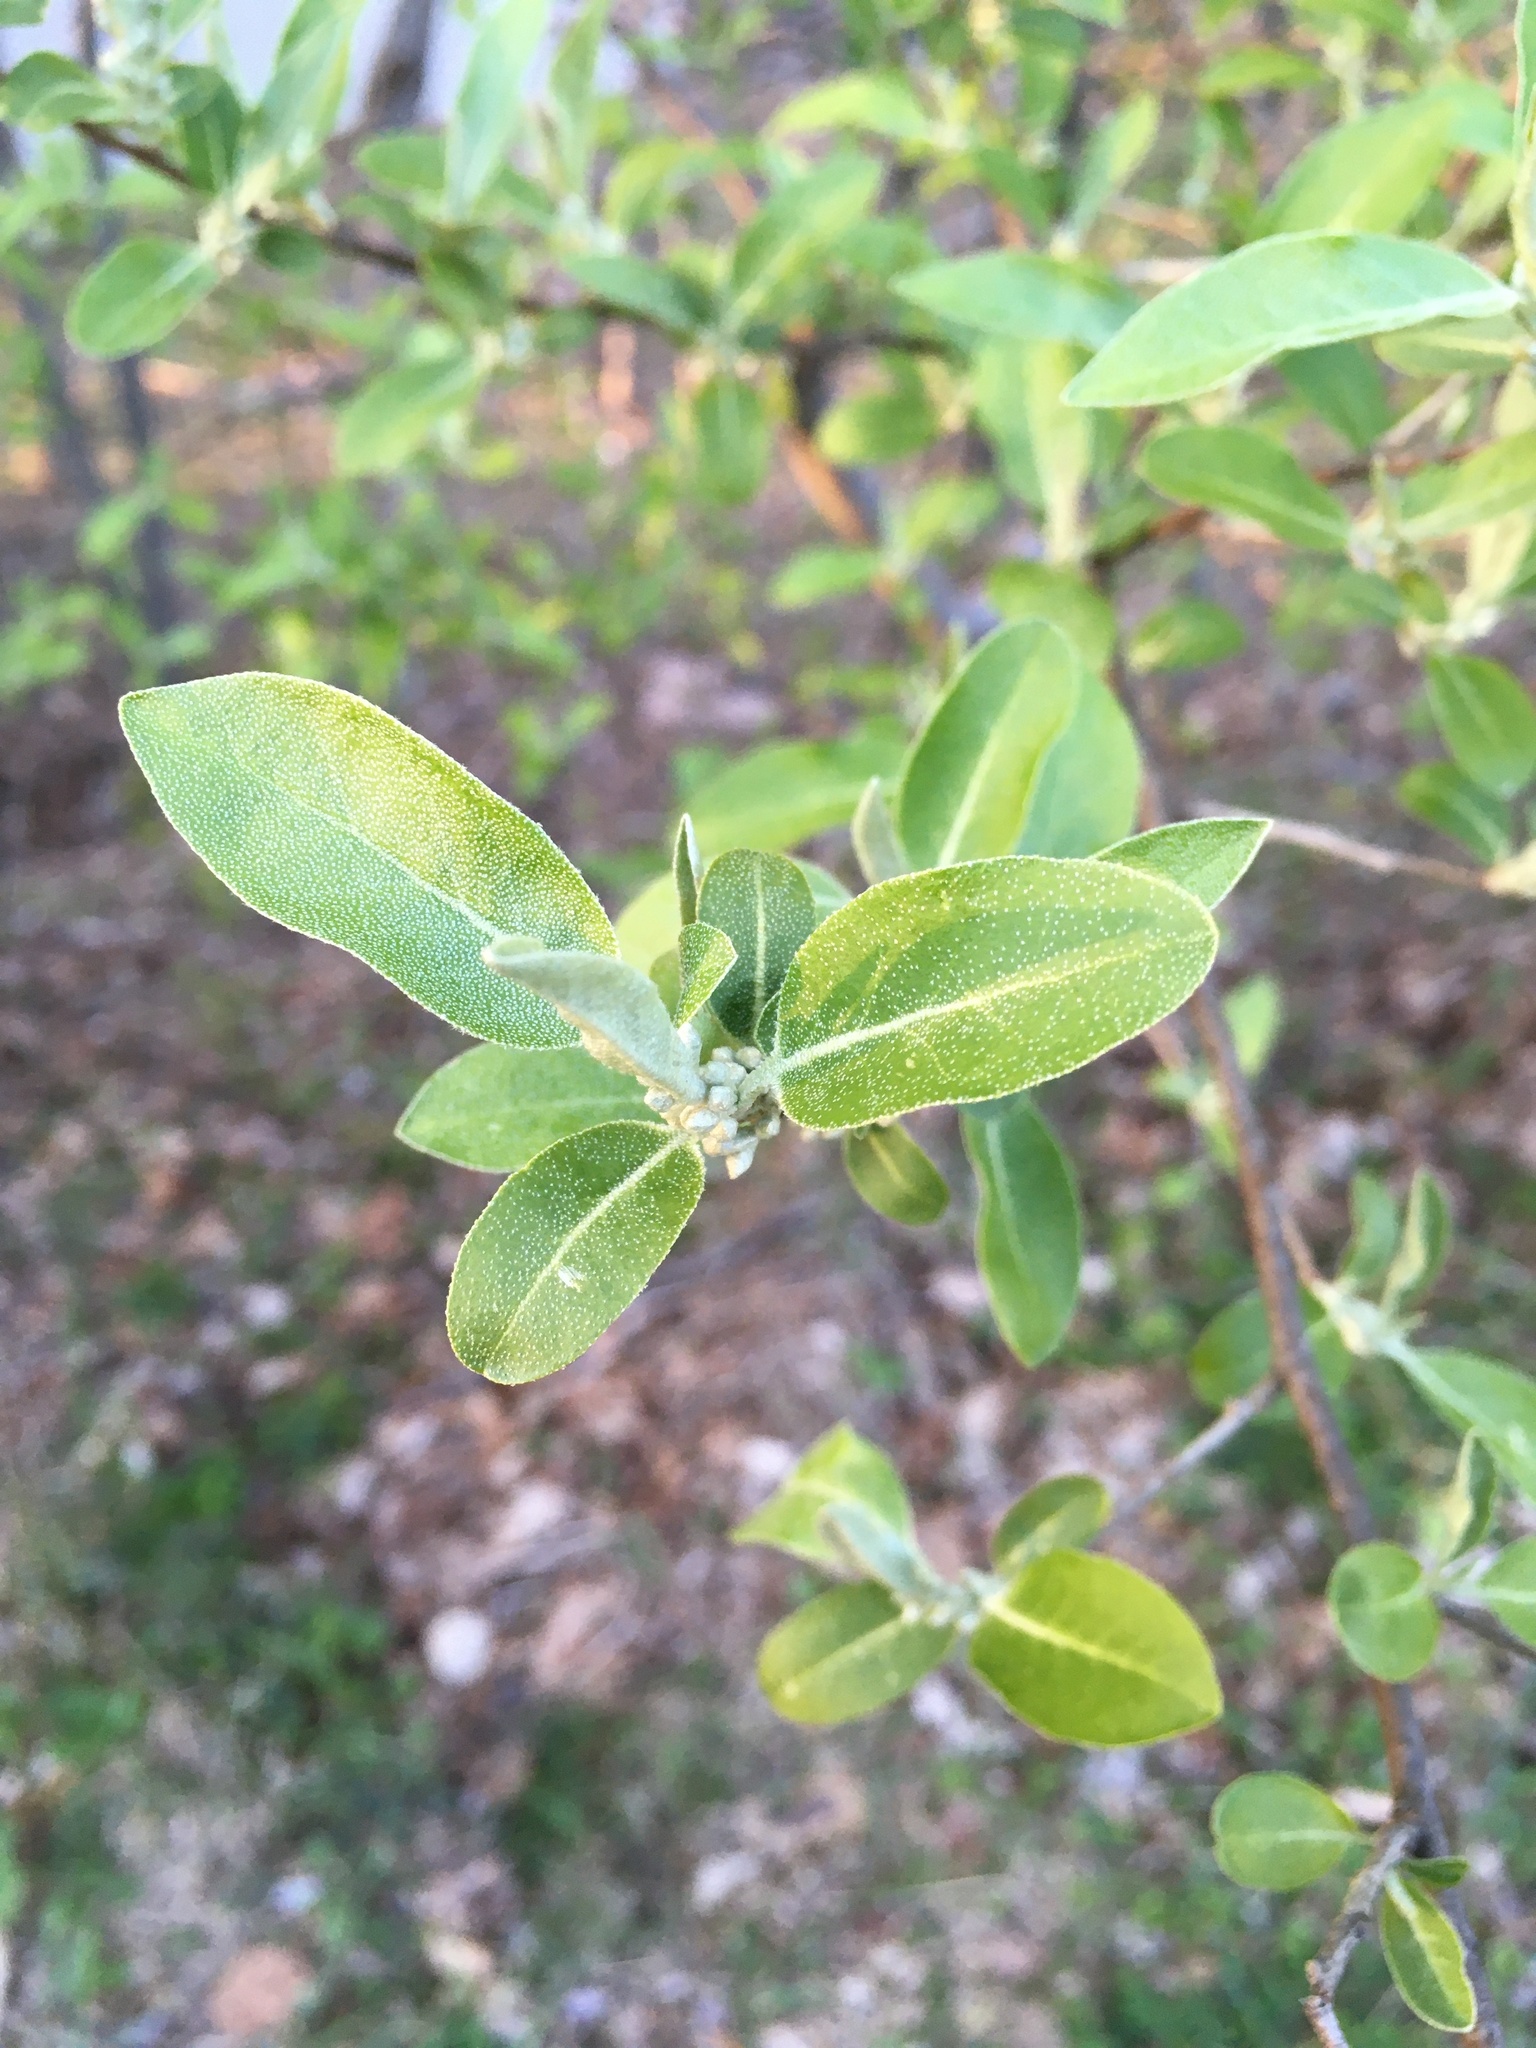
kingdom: Plantae
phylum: Tracheophyta
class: Magnoliopsida
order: Rosales
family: Elaeagnaceae
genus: Elaeagnus
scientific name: Elaeagnus umbellata
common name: Autumn olive
